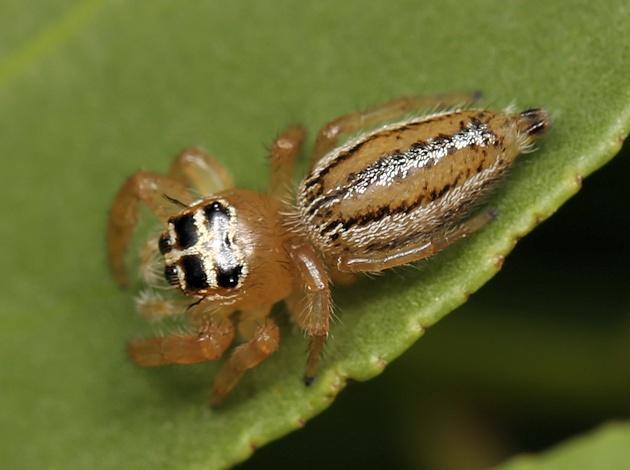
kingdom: Animalia
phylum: Arthropoda
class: Arachnida
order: Araneae
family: Salticidae
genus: Thyene
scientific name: Thyene inflata
